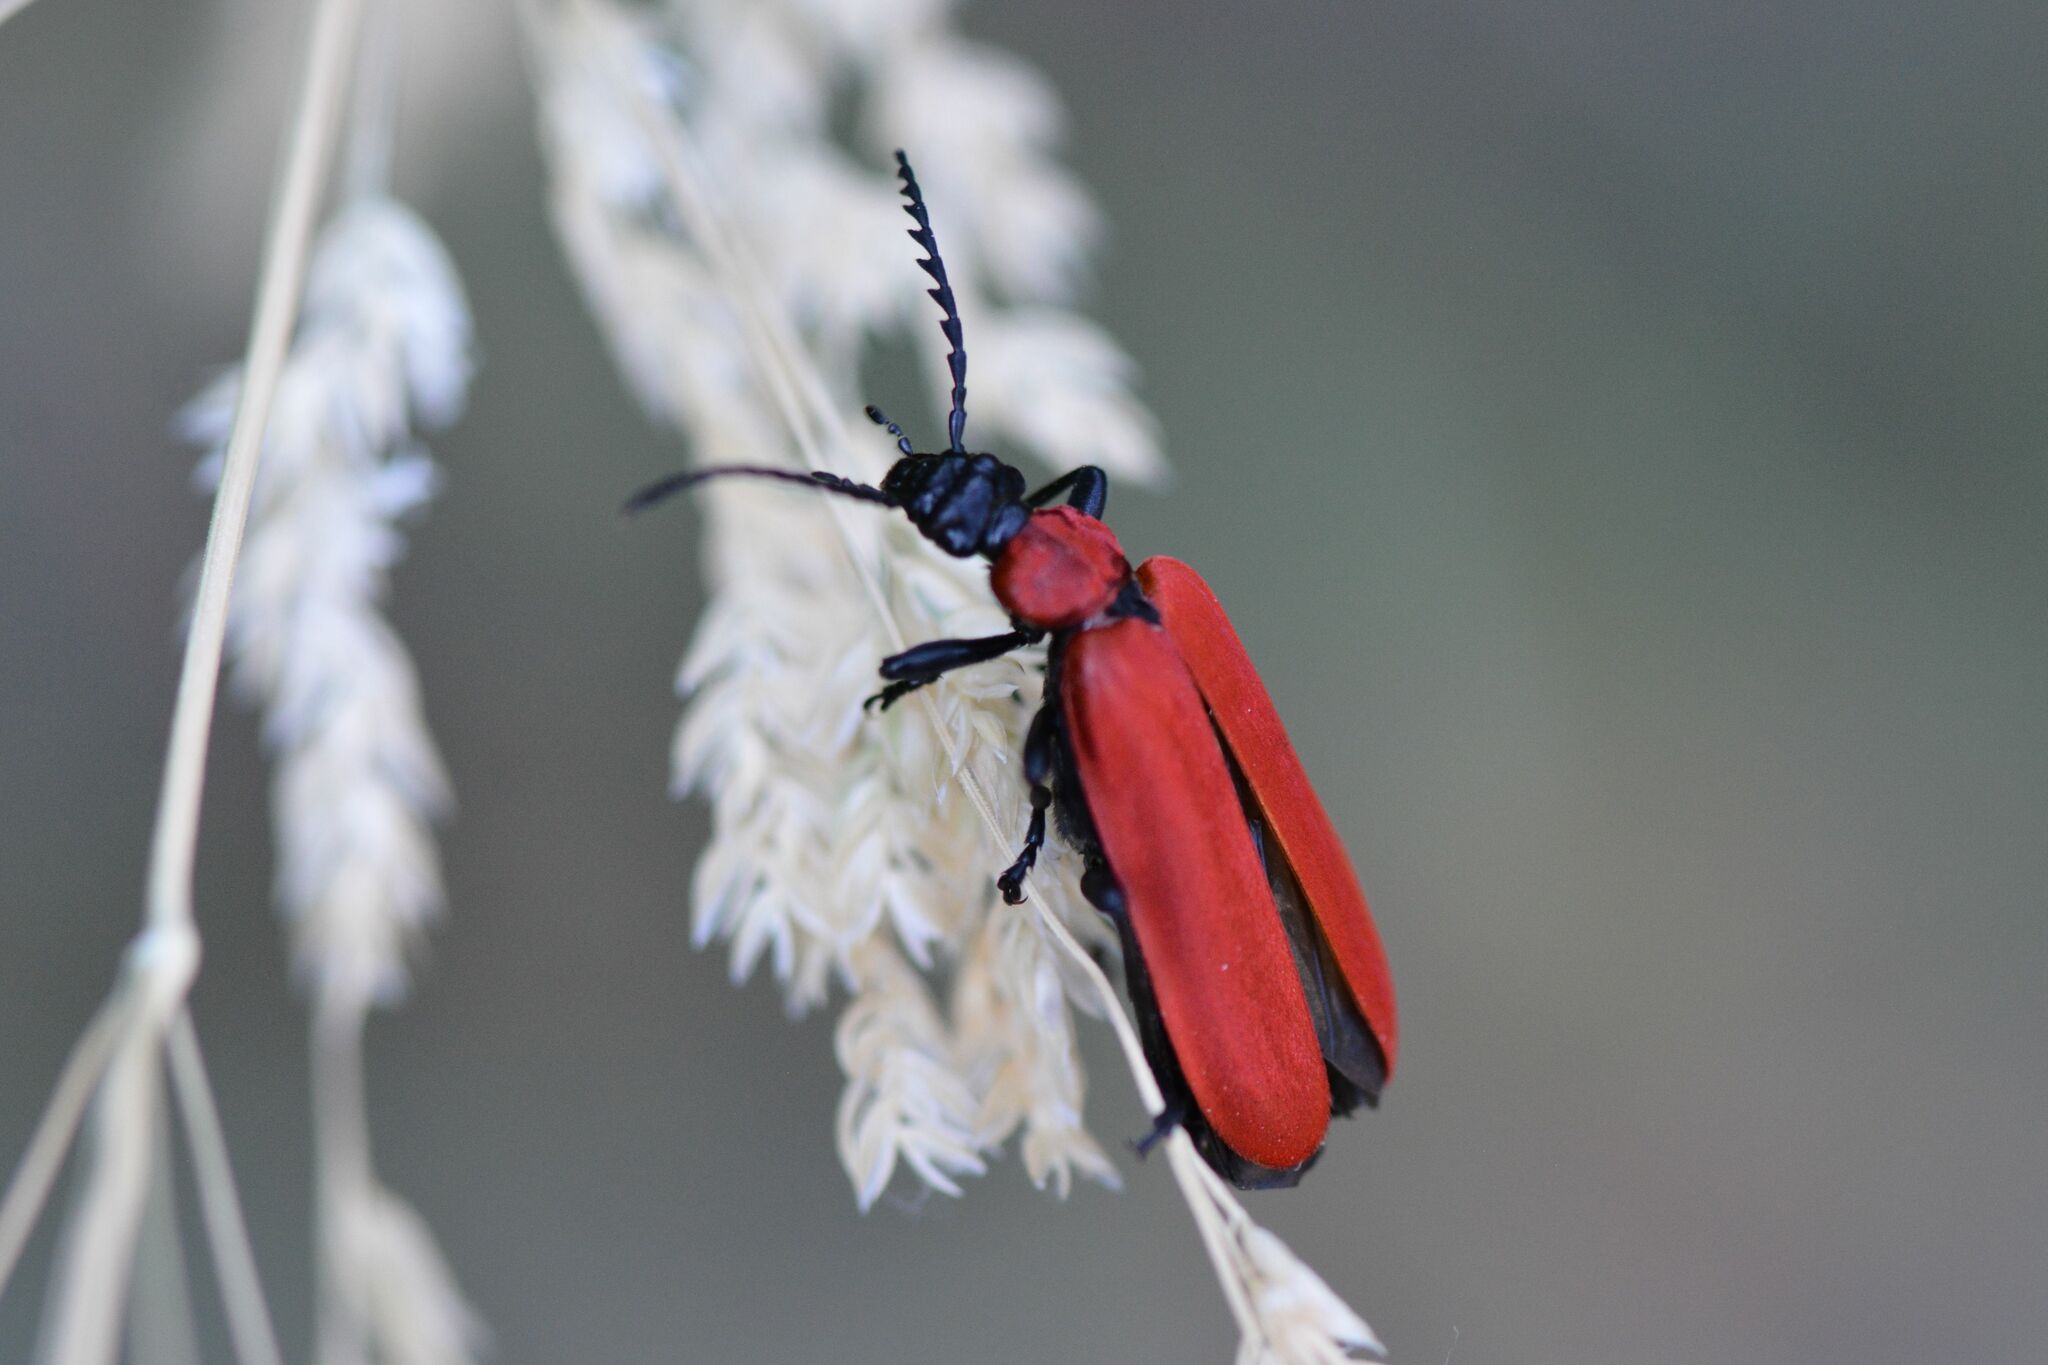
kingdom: Animalia
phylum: Arthropoda
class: Insecta
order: Coleoptera
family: Pyrochroidae
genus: Pyrochroa
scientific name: Pyrochroa coccinea
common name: Black-headed cardinal beetle
